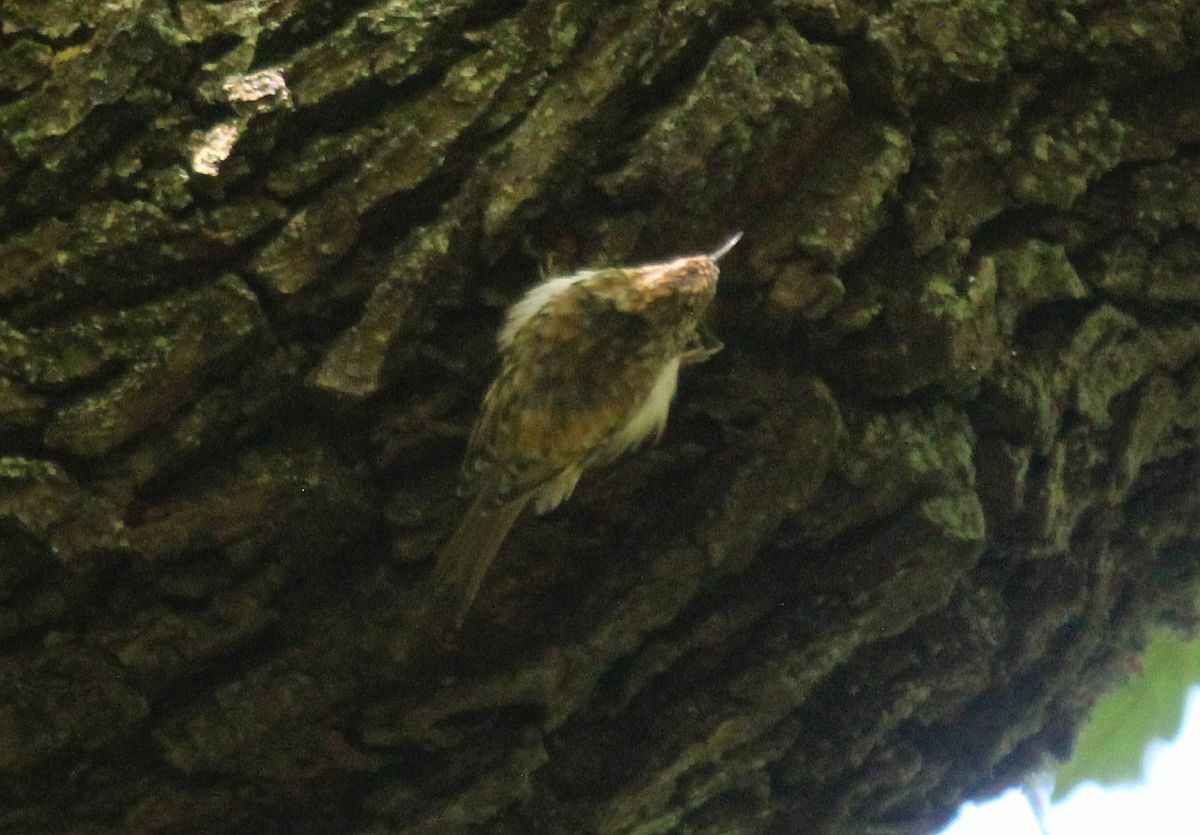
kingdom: Animalia
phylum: Chordata
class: Aves
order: Passeriformes
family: Certhiidae
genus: Certhia
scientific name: Certhia familiaris
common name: Eurasian treecreeper
